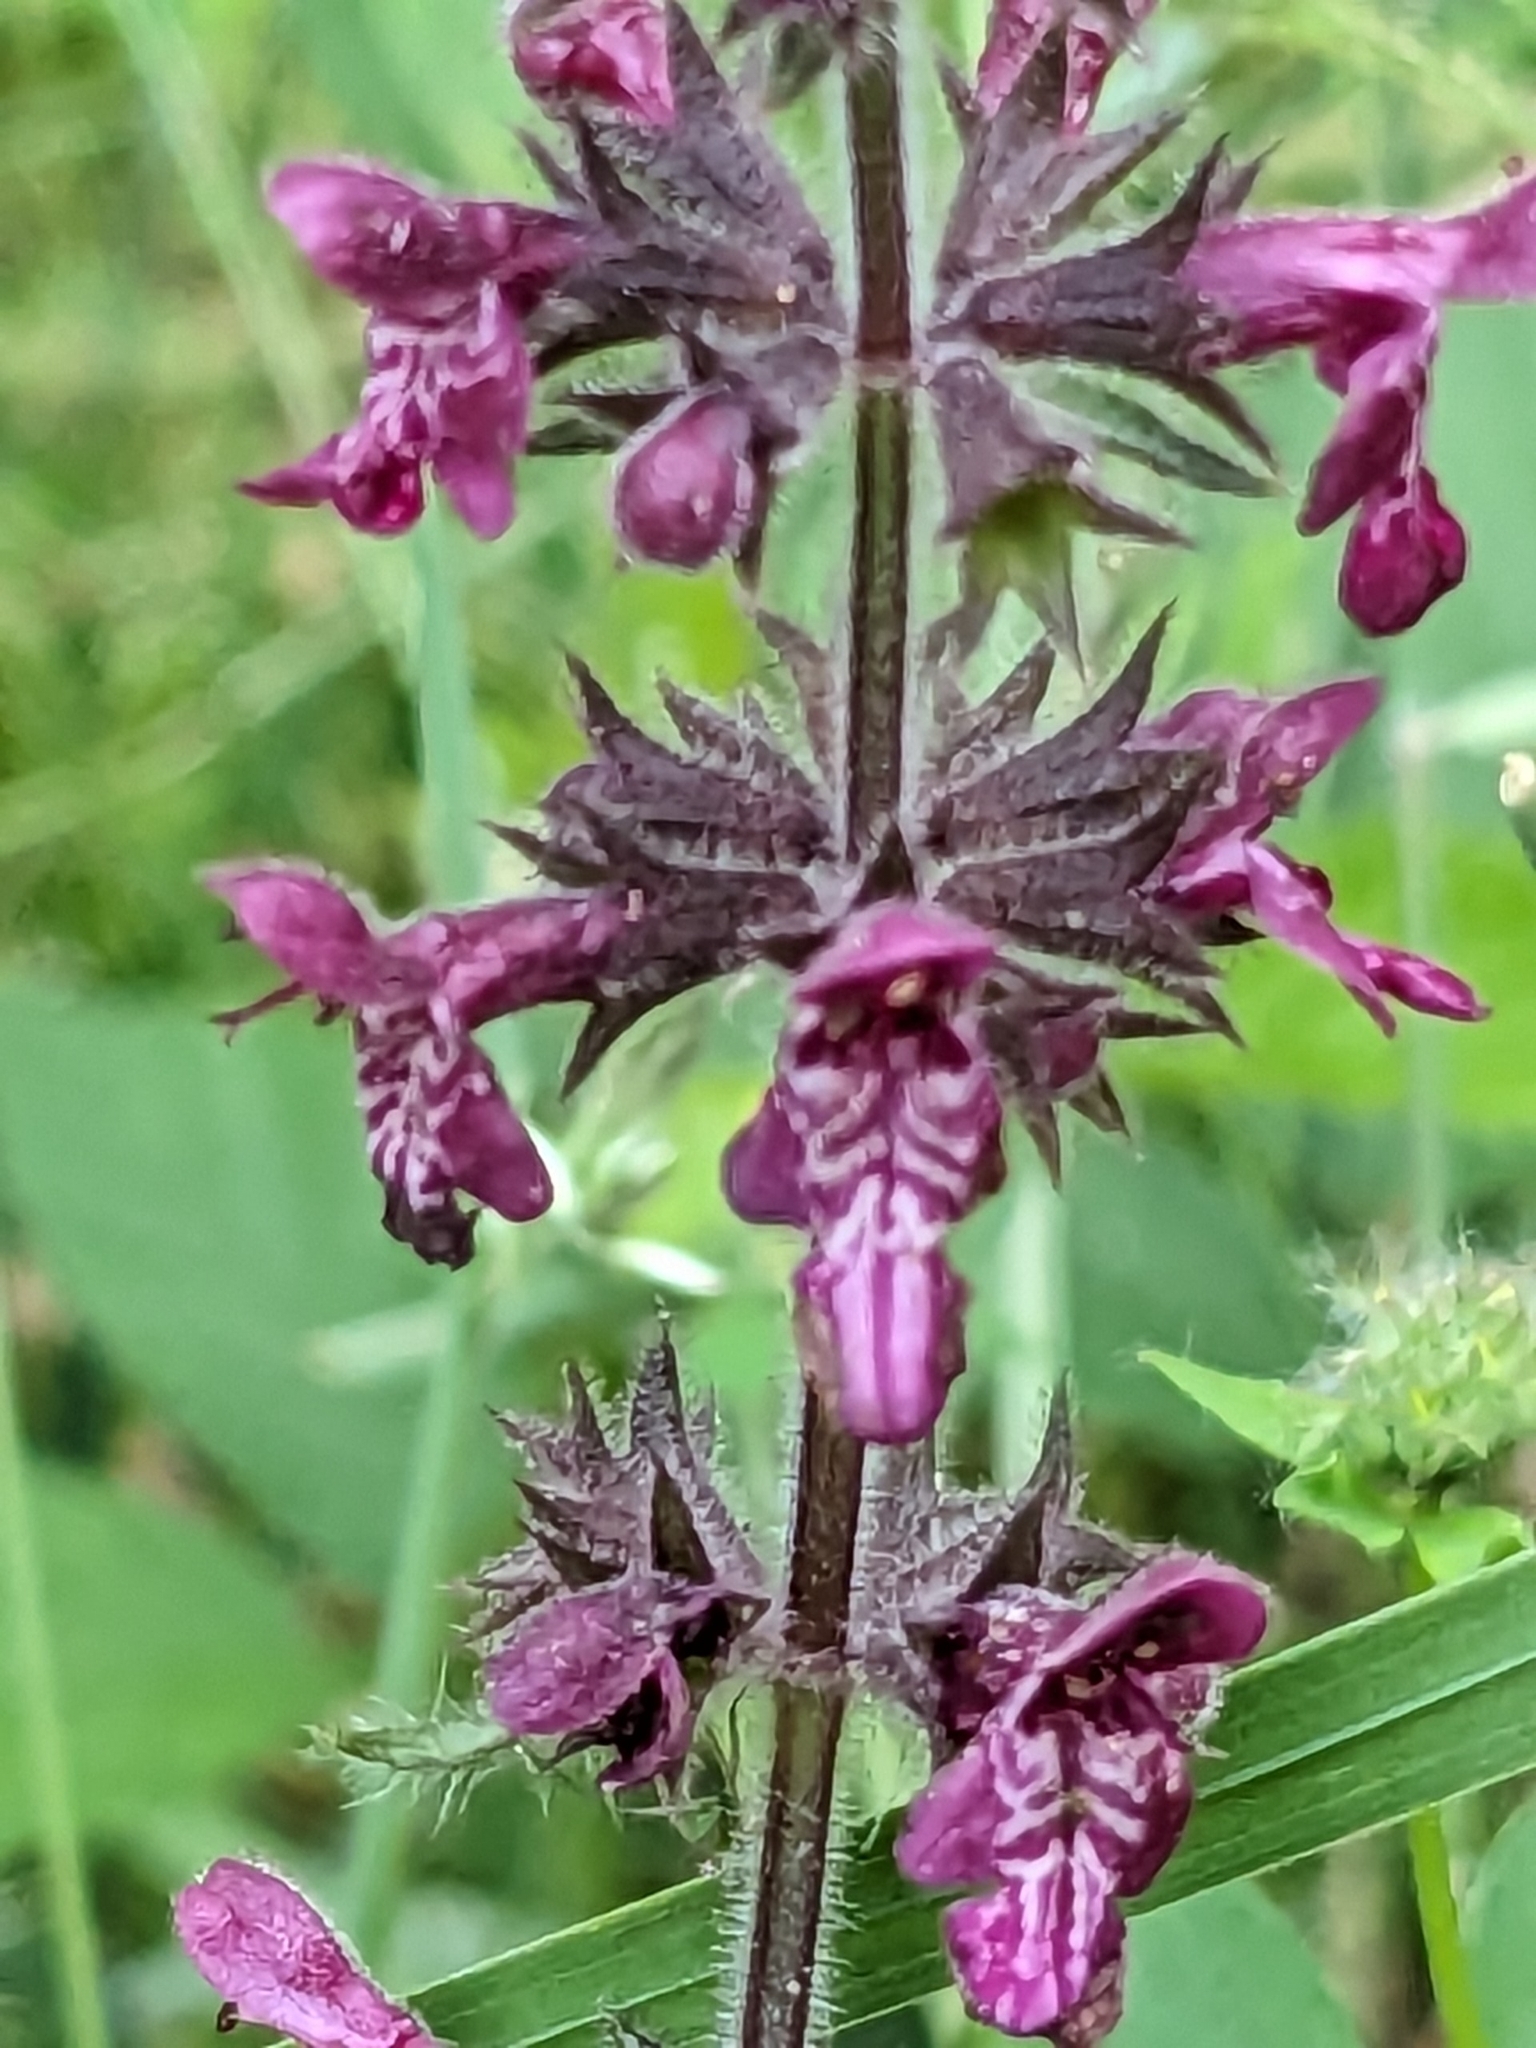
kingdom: Plantae
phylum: Tracheophyta
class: Magnoliopsida
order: Lamiales
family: Lamiaceae
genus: Stachys
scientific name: Stachys sylvatica
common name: Hedge woundwort
